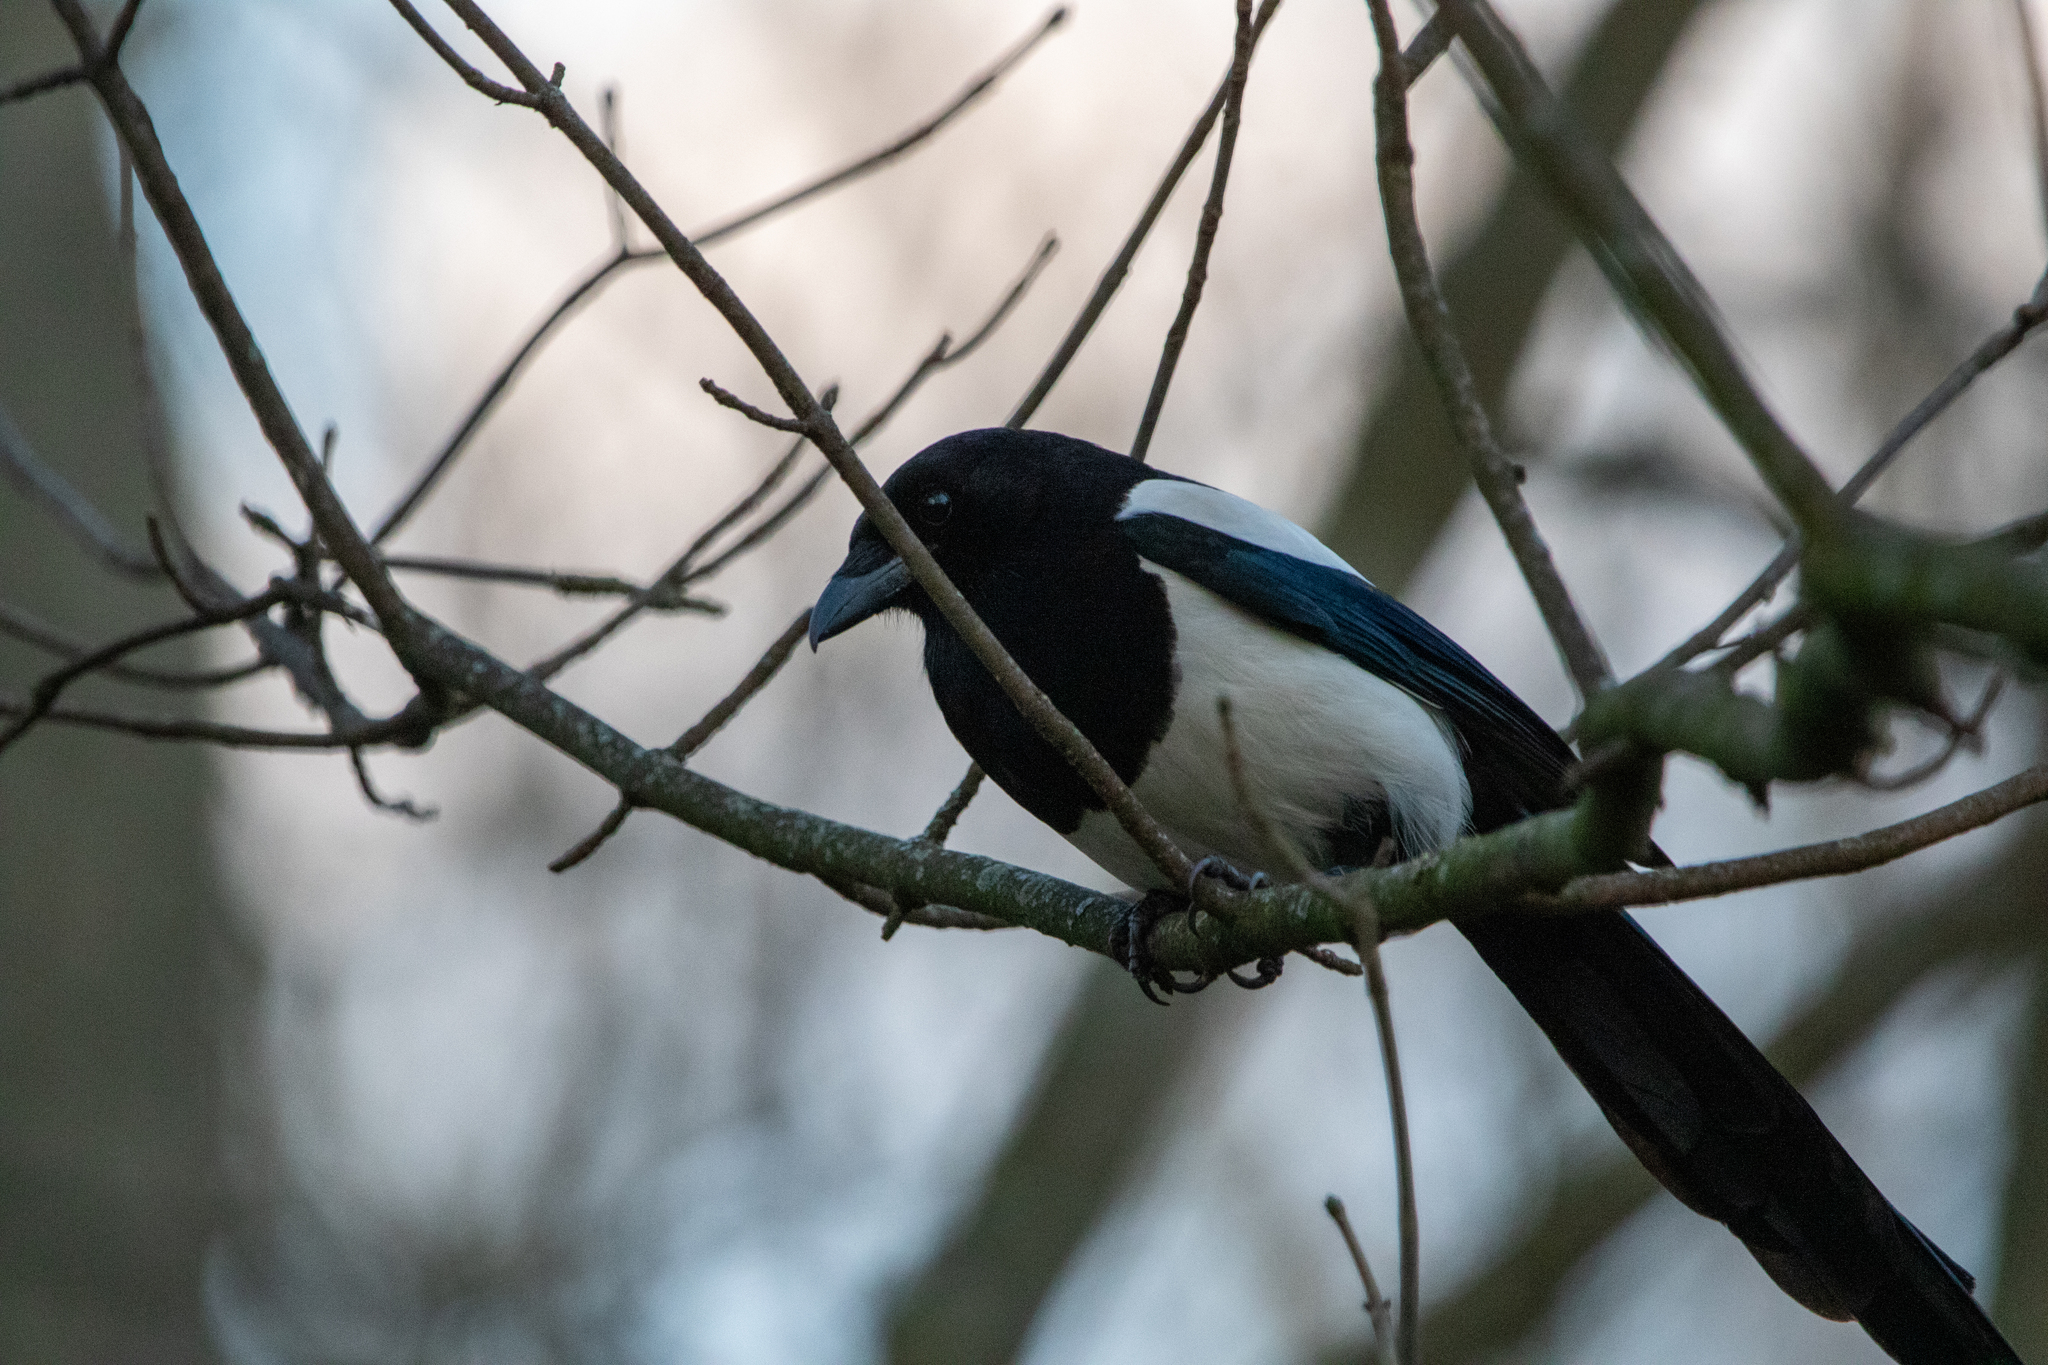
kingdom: Animalia
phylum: Chordata
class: Aves
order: Passeriformes
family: Corvidae
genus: Pica
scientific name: Pica pica
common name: Eurasian magpie
